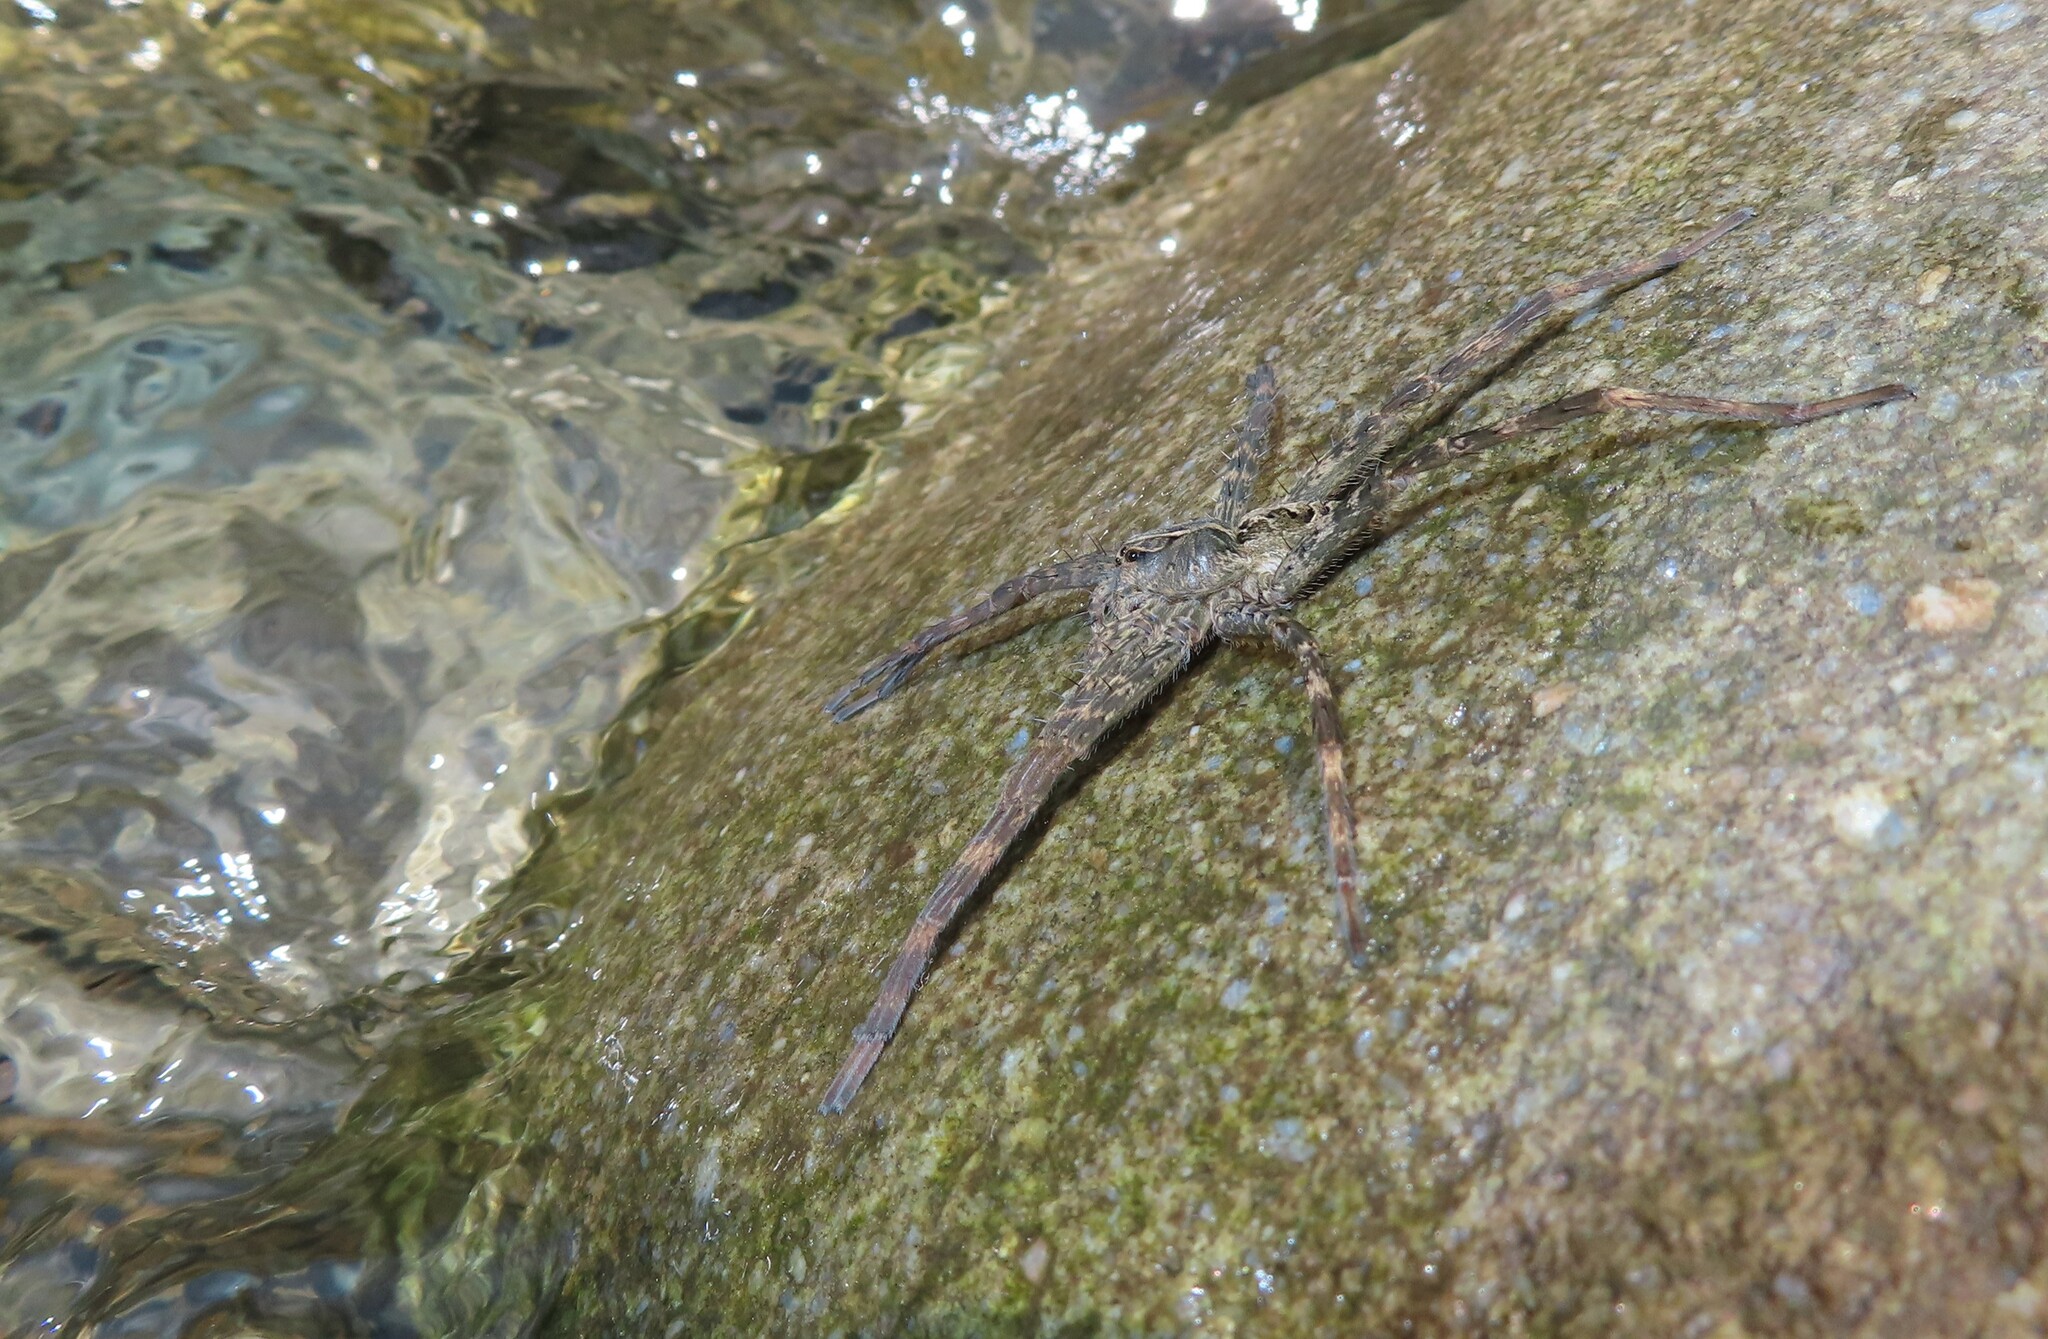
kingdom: Animalia
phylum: Arthropoda
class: Arachnida
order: Araneae
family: Pisauridae
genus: Dolomedes
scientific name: Dolomedes scriptus
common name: Striped fishing spider
